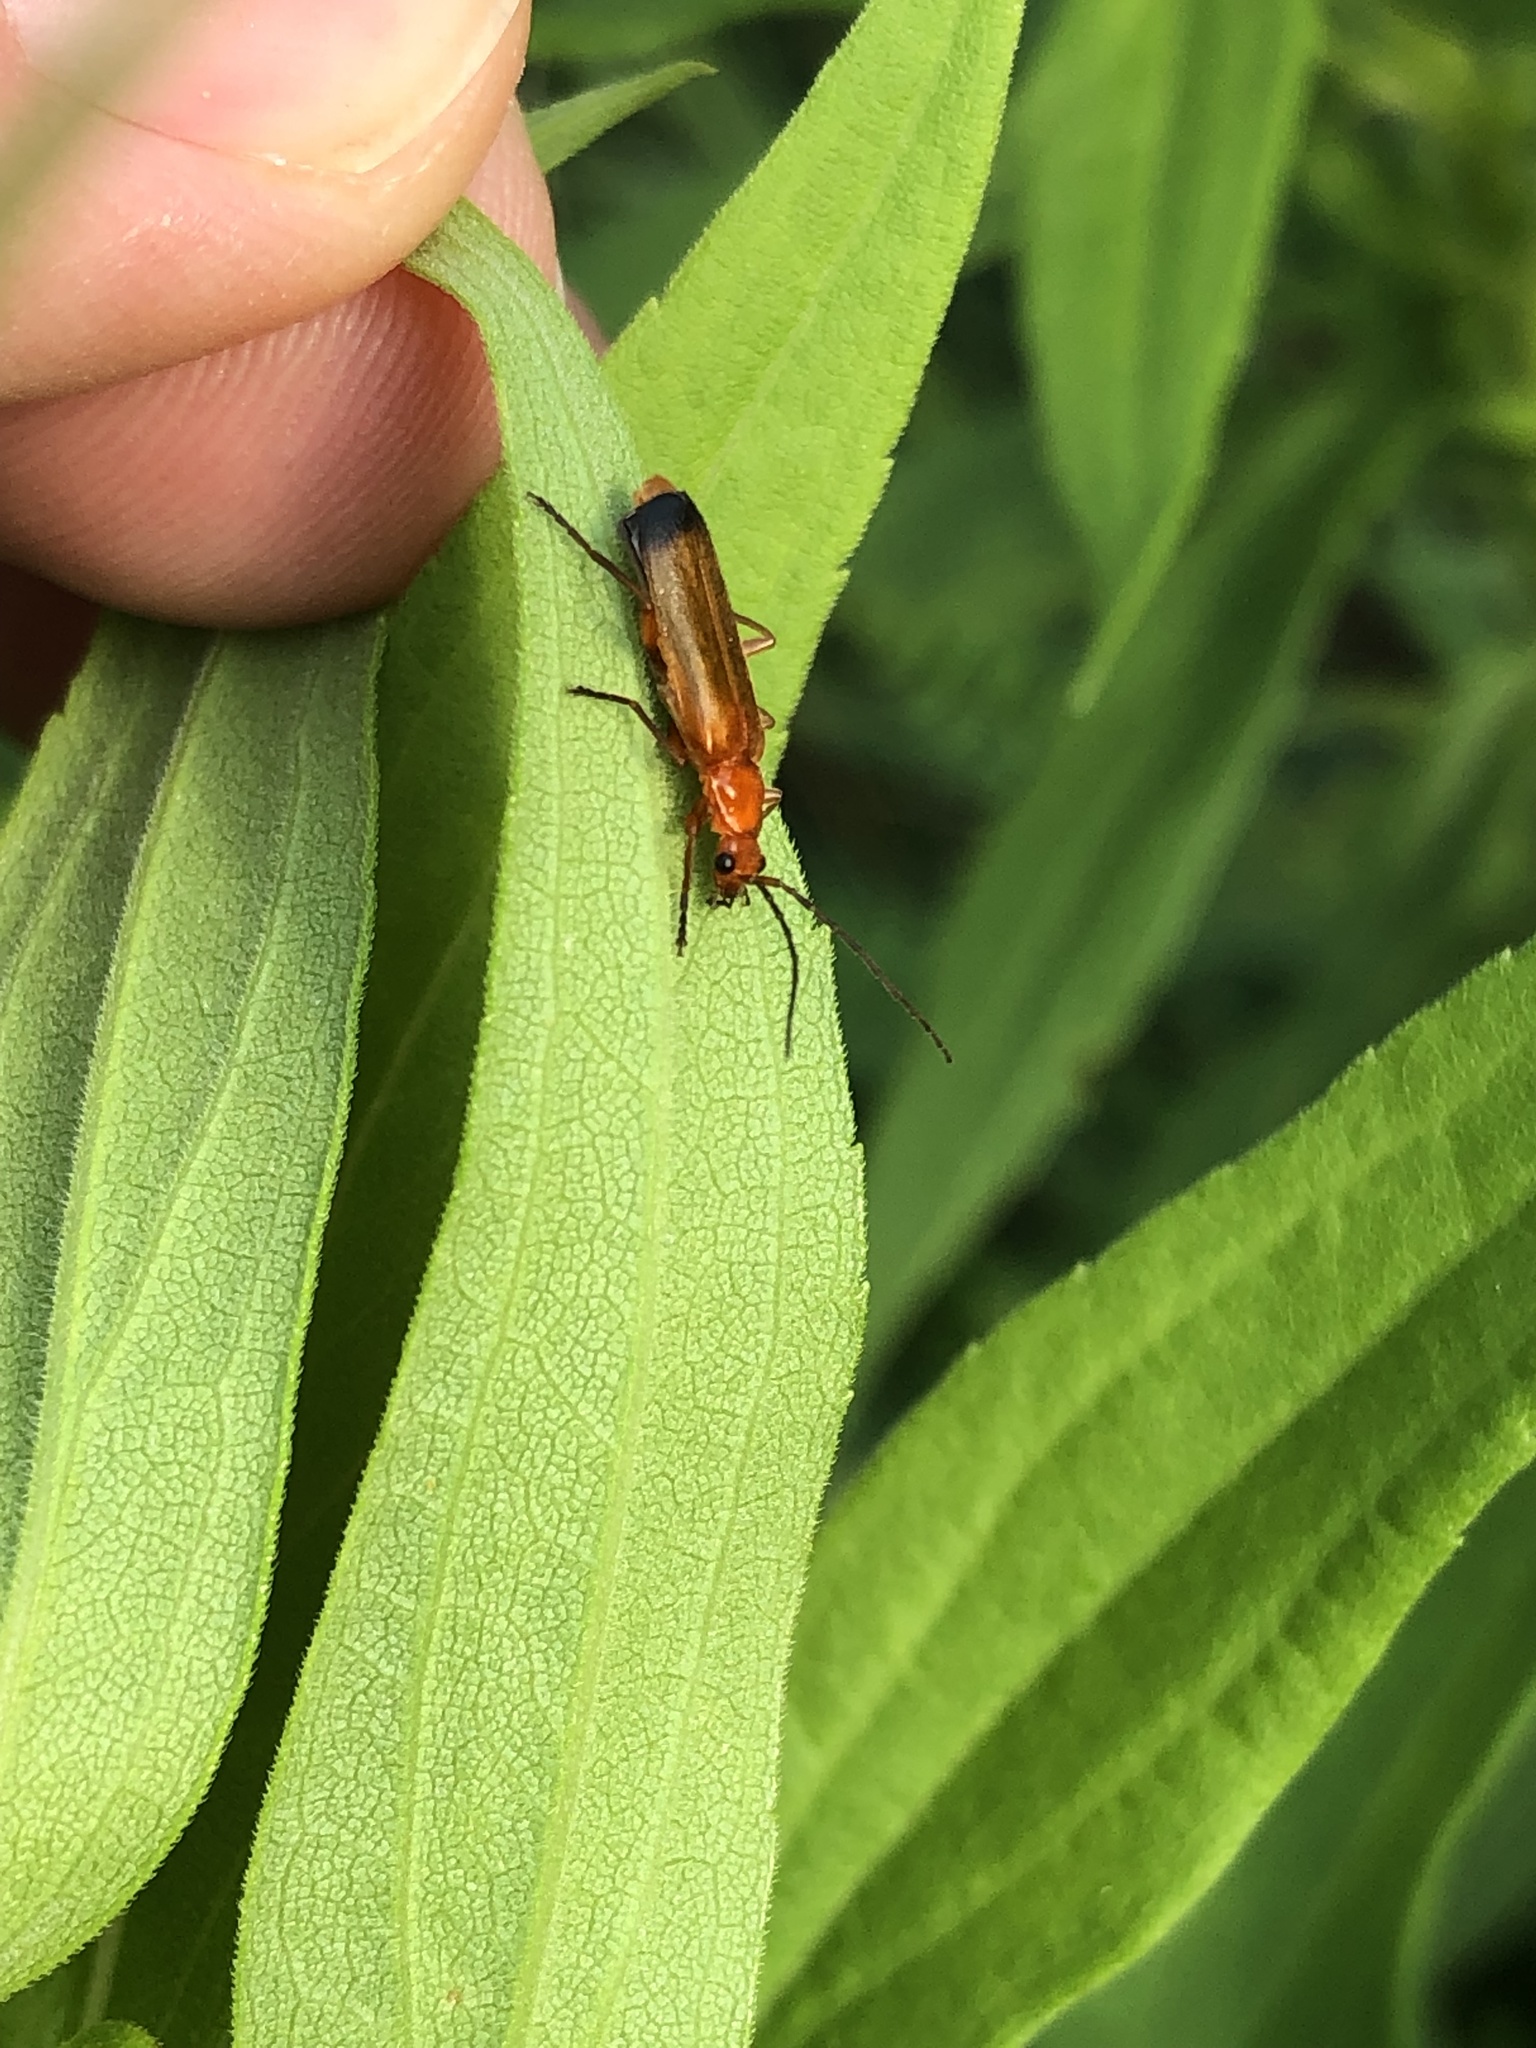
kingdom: Animalia
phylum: Arthropoda
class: Insecta
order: Coleoptera
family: Cantharidae
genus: Rhagonycha
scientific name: Rhagonycha fulva
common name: Common red soldier beetle
